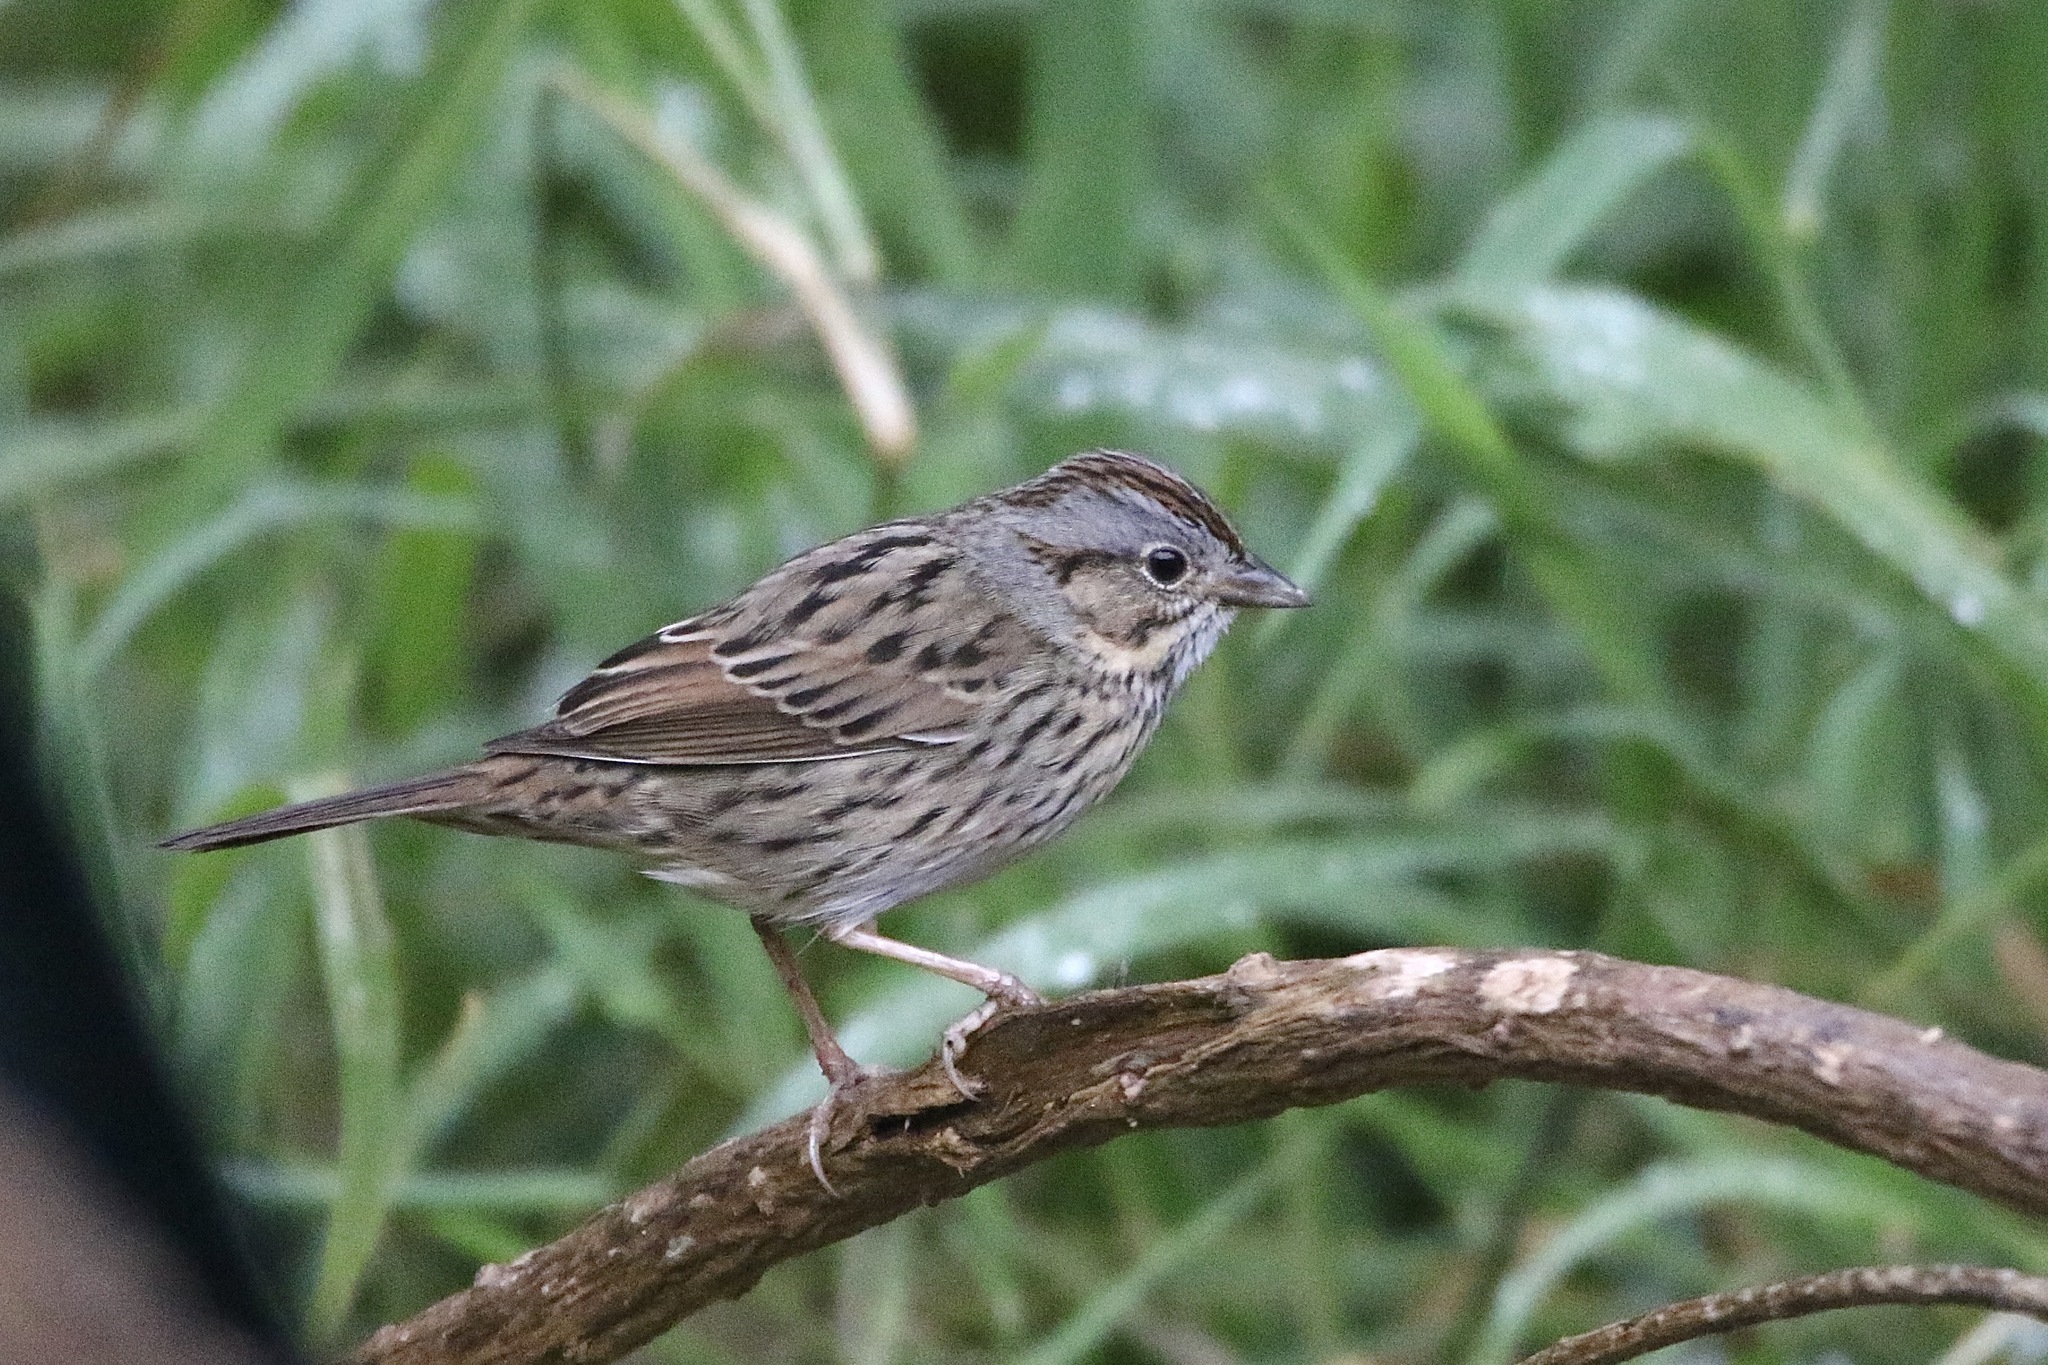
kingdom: Animalia
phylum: Chordata
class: Aves
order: Passeriformes
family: Passerellidae
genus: Melospiza
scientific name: Melospiza lincolnii
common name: Lincoln's sparrow
